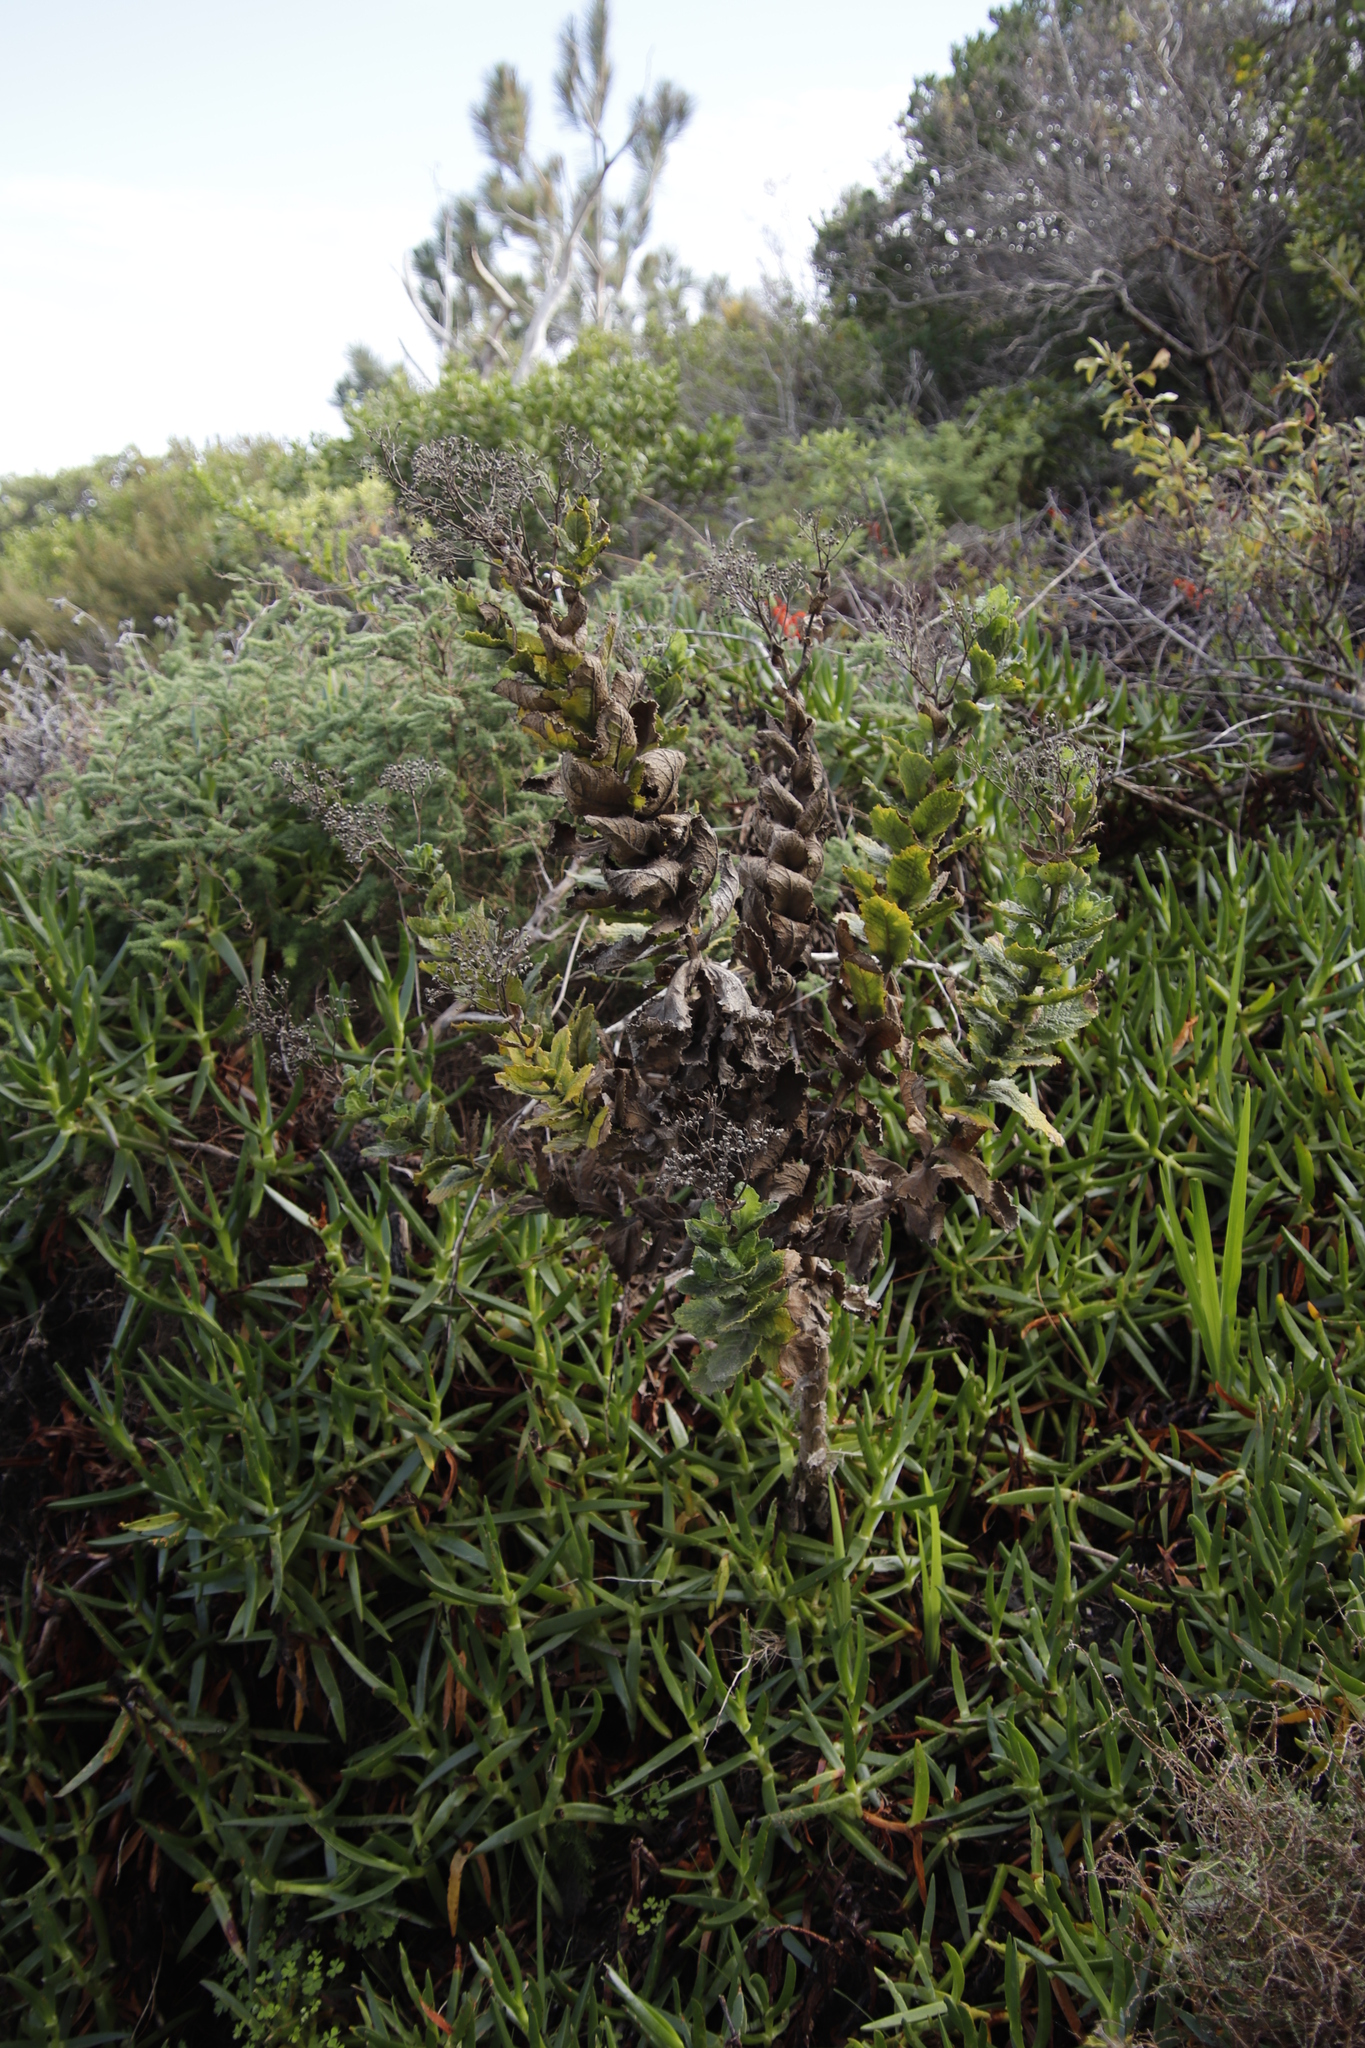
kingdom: Plantae
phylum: Tracheophyta
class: Magnoliopsida
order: Asterales
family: Asteraceae
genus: Senecio
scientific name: Senecio rigidus
